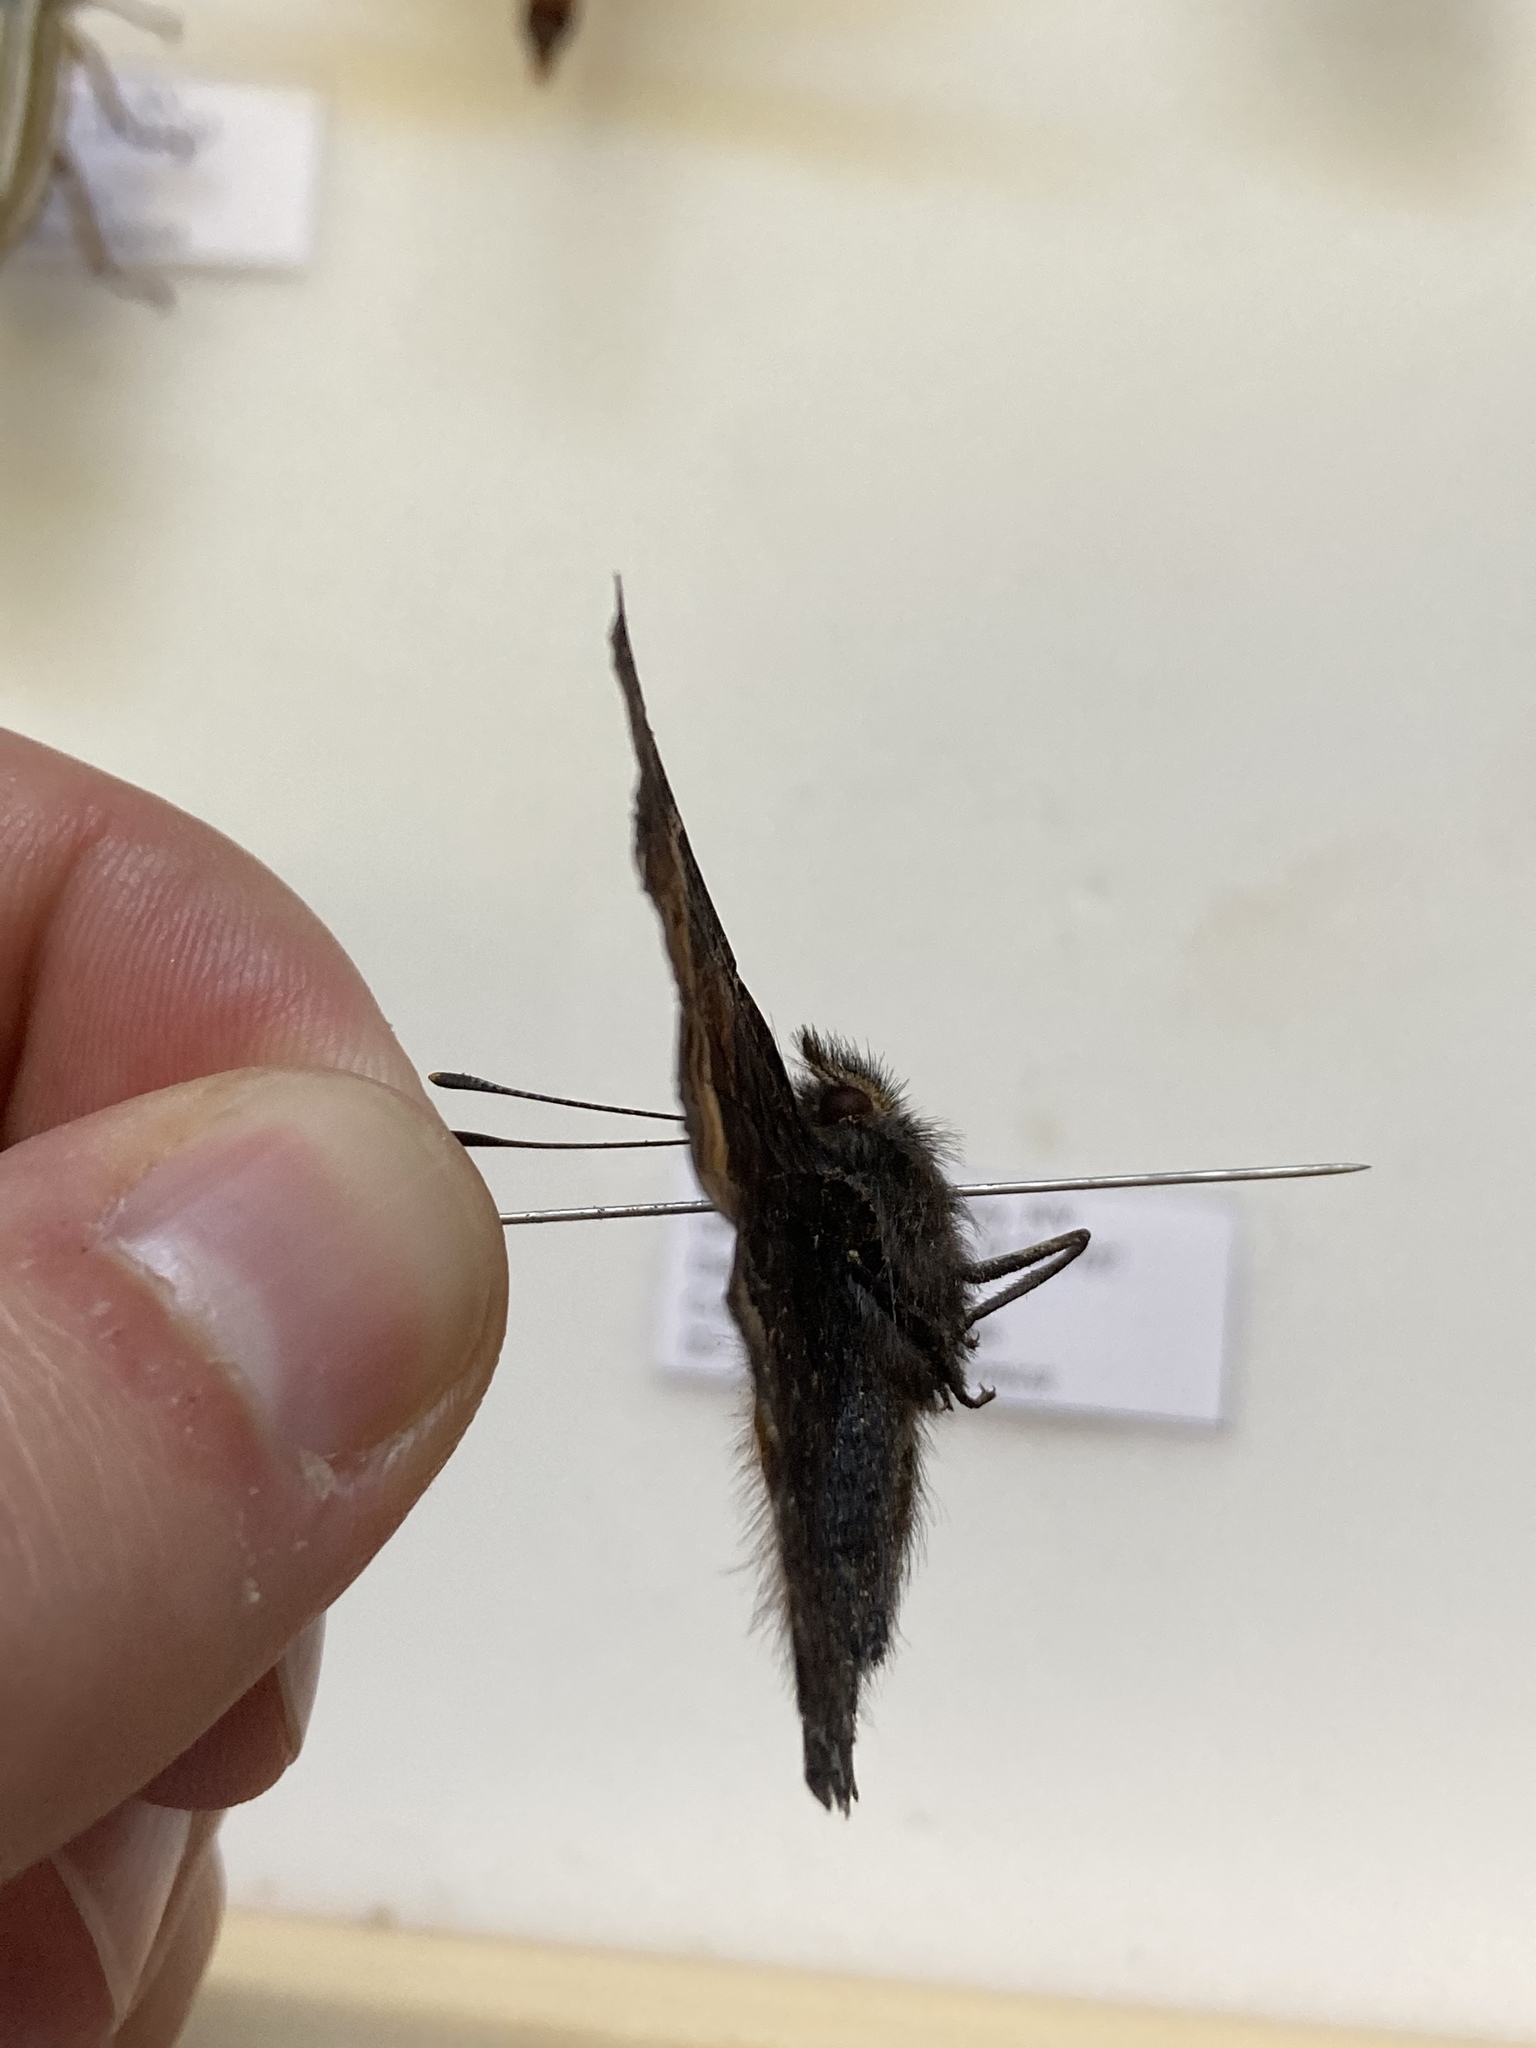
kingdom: Animalia
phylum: Arthropoda
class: Insecta
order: Lepidoptera
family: Nymphalidae
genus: Nymphalis
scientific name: Nymphalis californica
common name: California tortoiseshell
